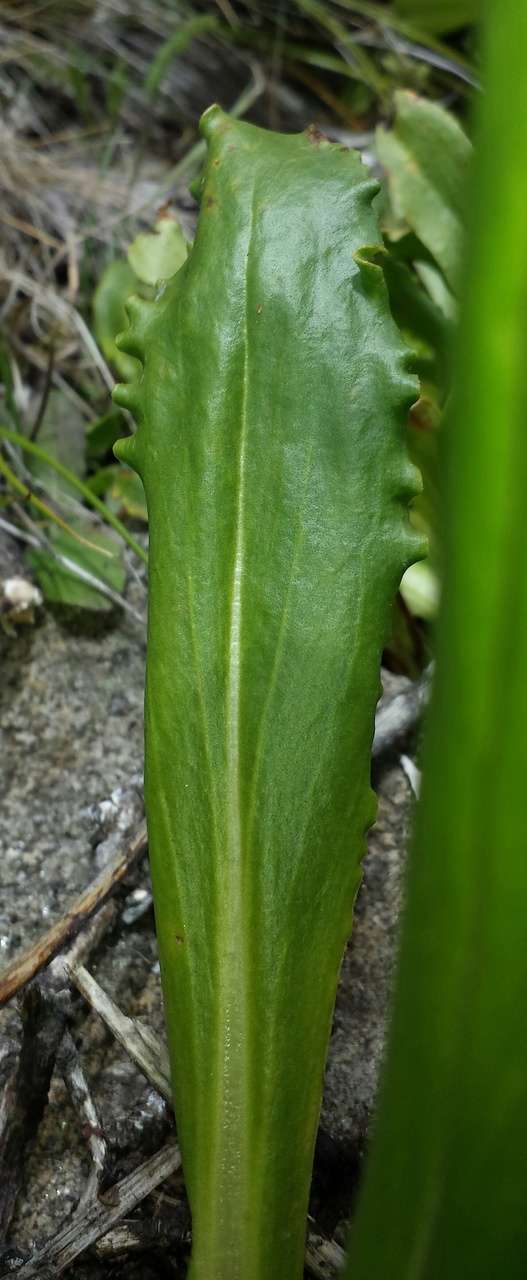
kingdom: Plantae
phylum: Tracheophyta
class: Magnoliopsida
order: Asterales
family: Asteraceae
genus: Podolepis
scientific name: Podolepis robusta
